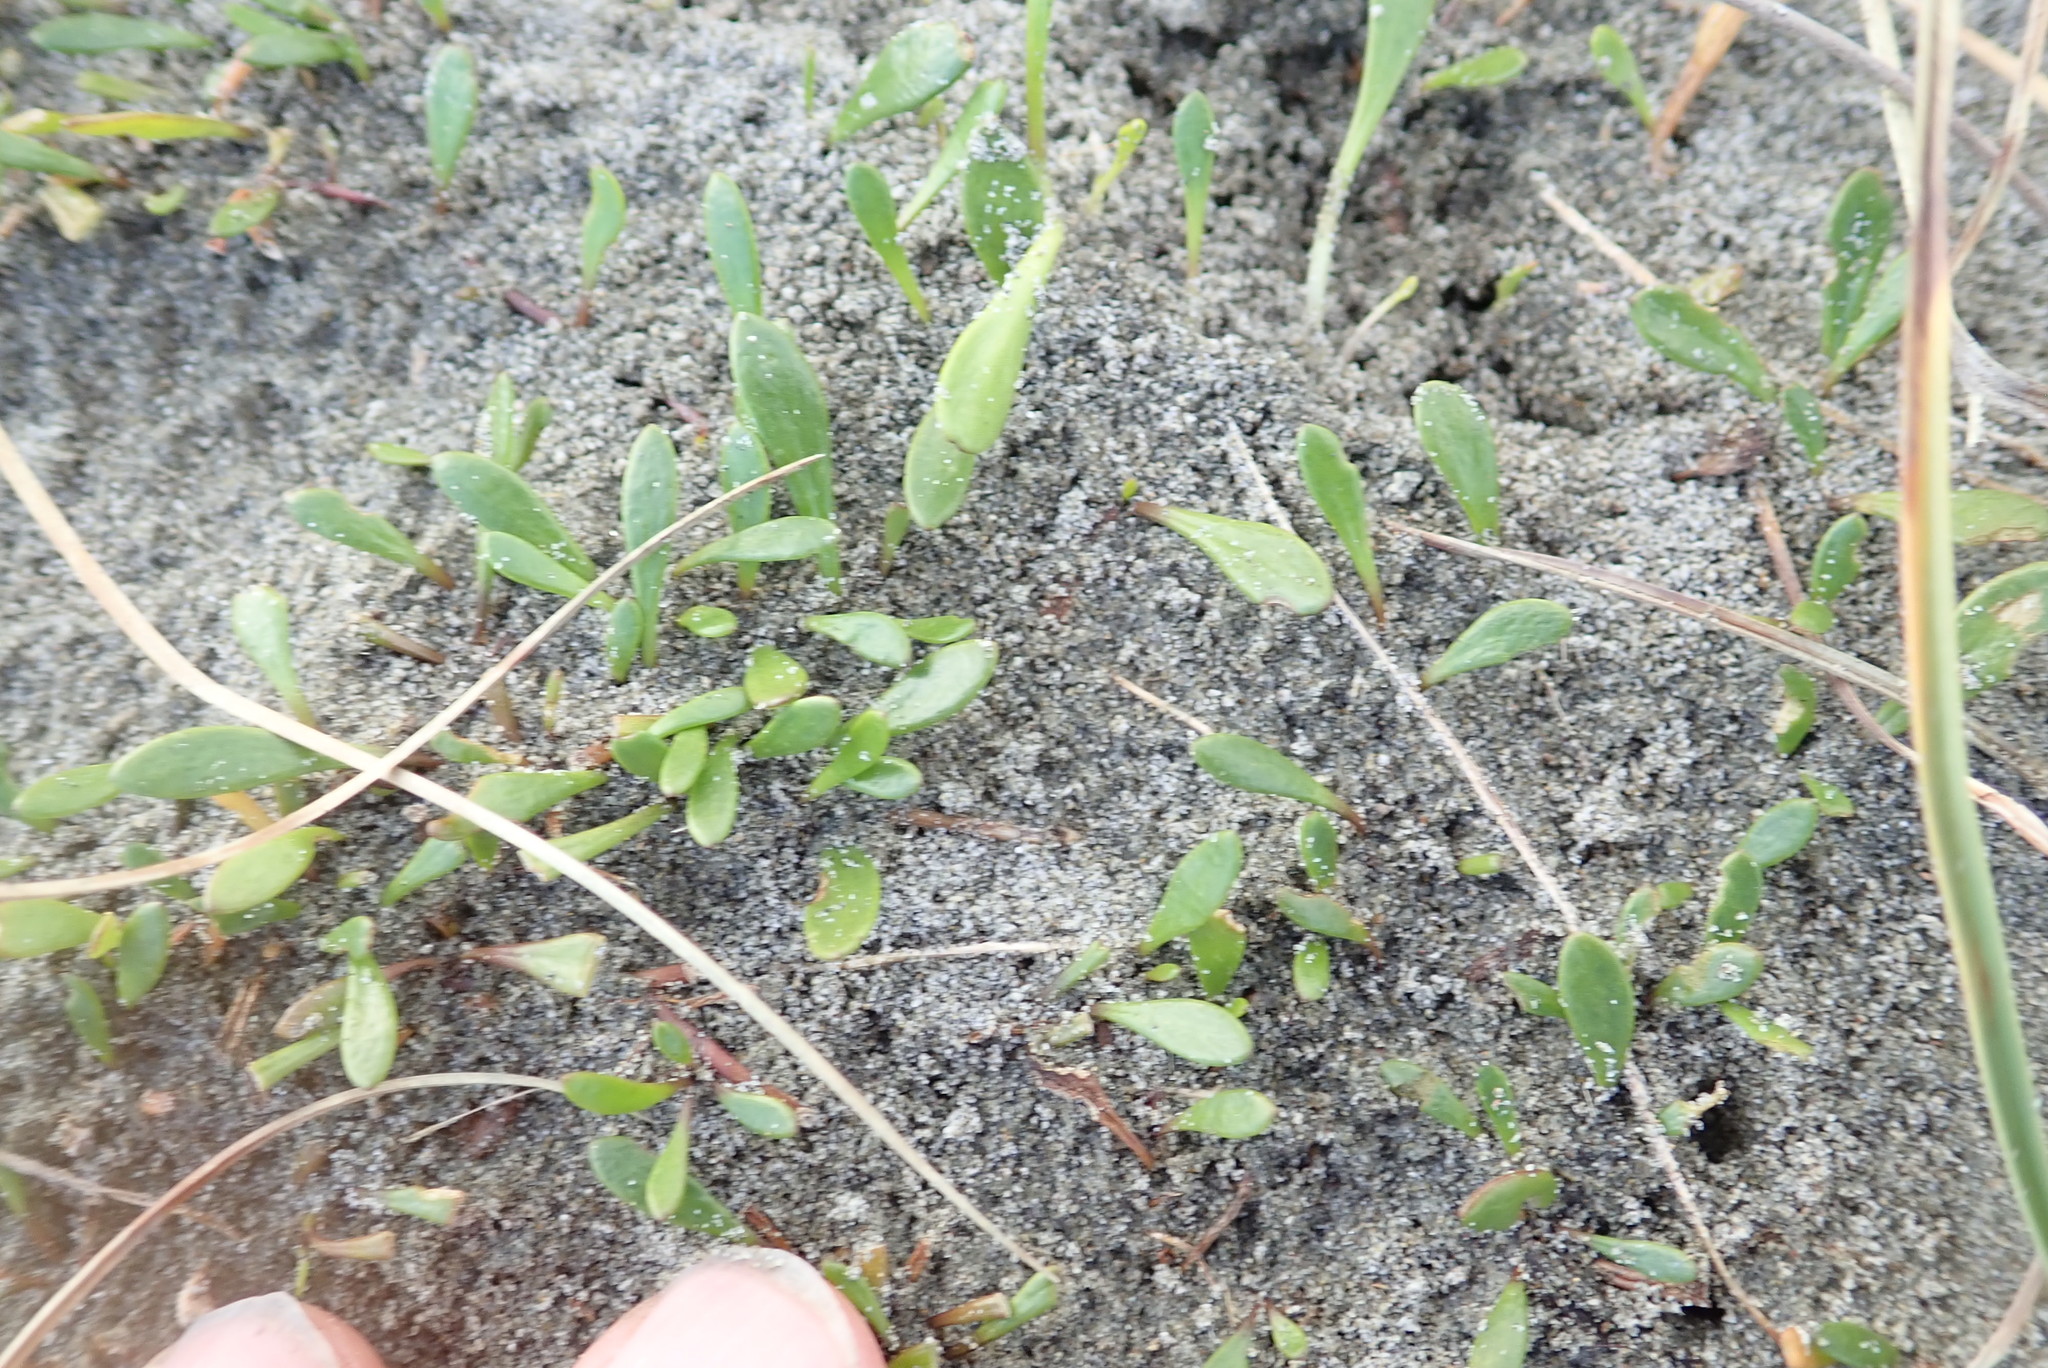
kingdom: Plantae
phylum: Tracheophyta
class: Magnoliopsida
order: Asterales
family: Goodeniaceae
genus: Goodenia
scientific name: Goodenia radicans
